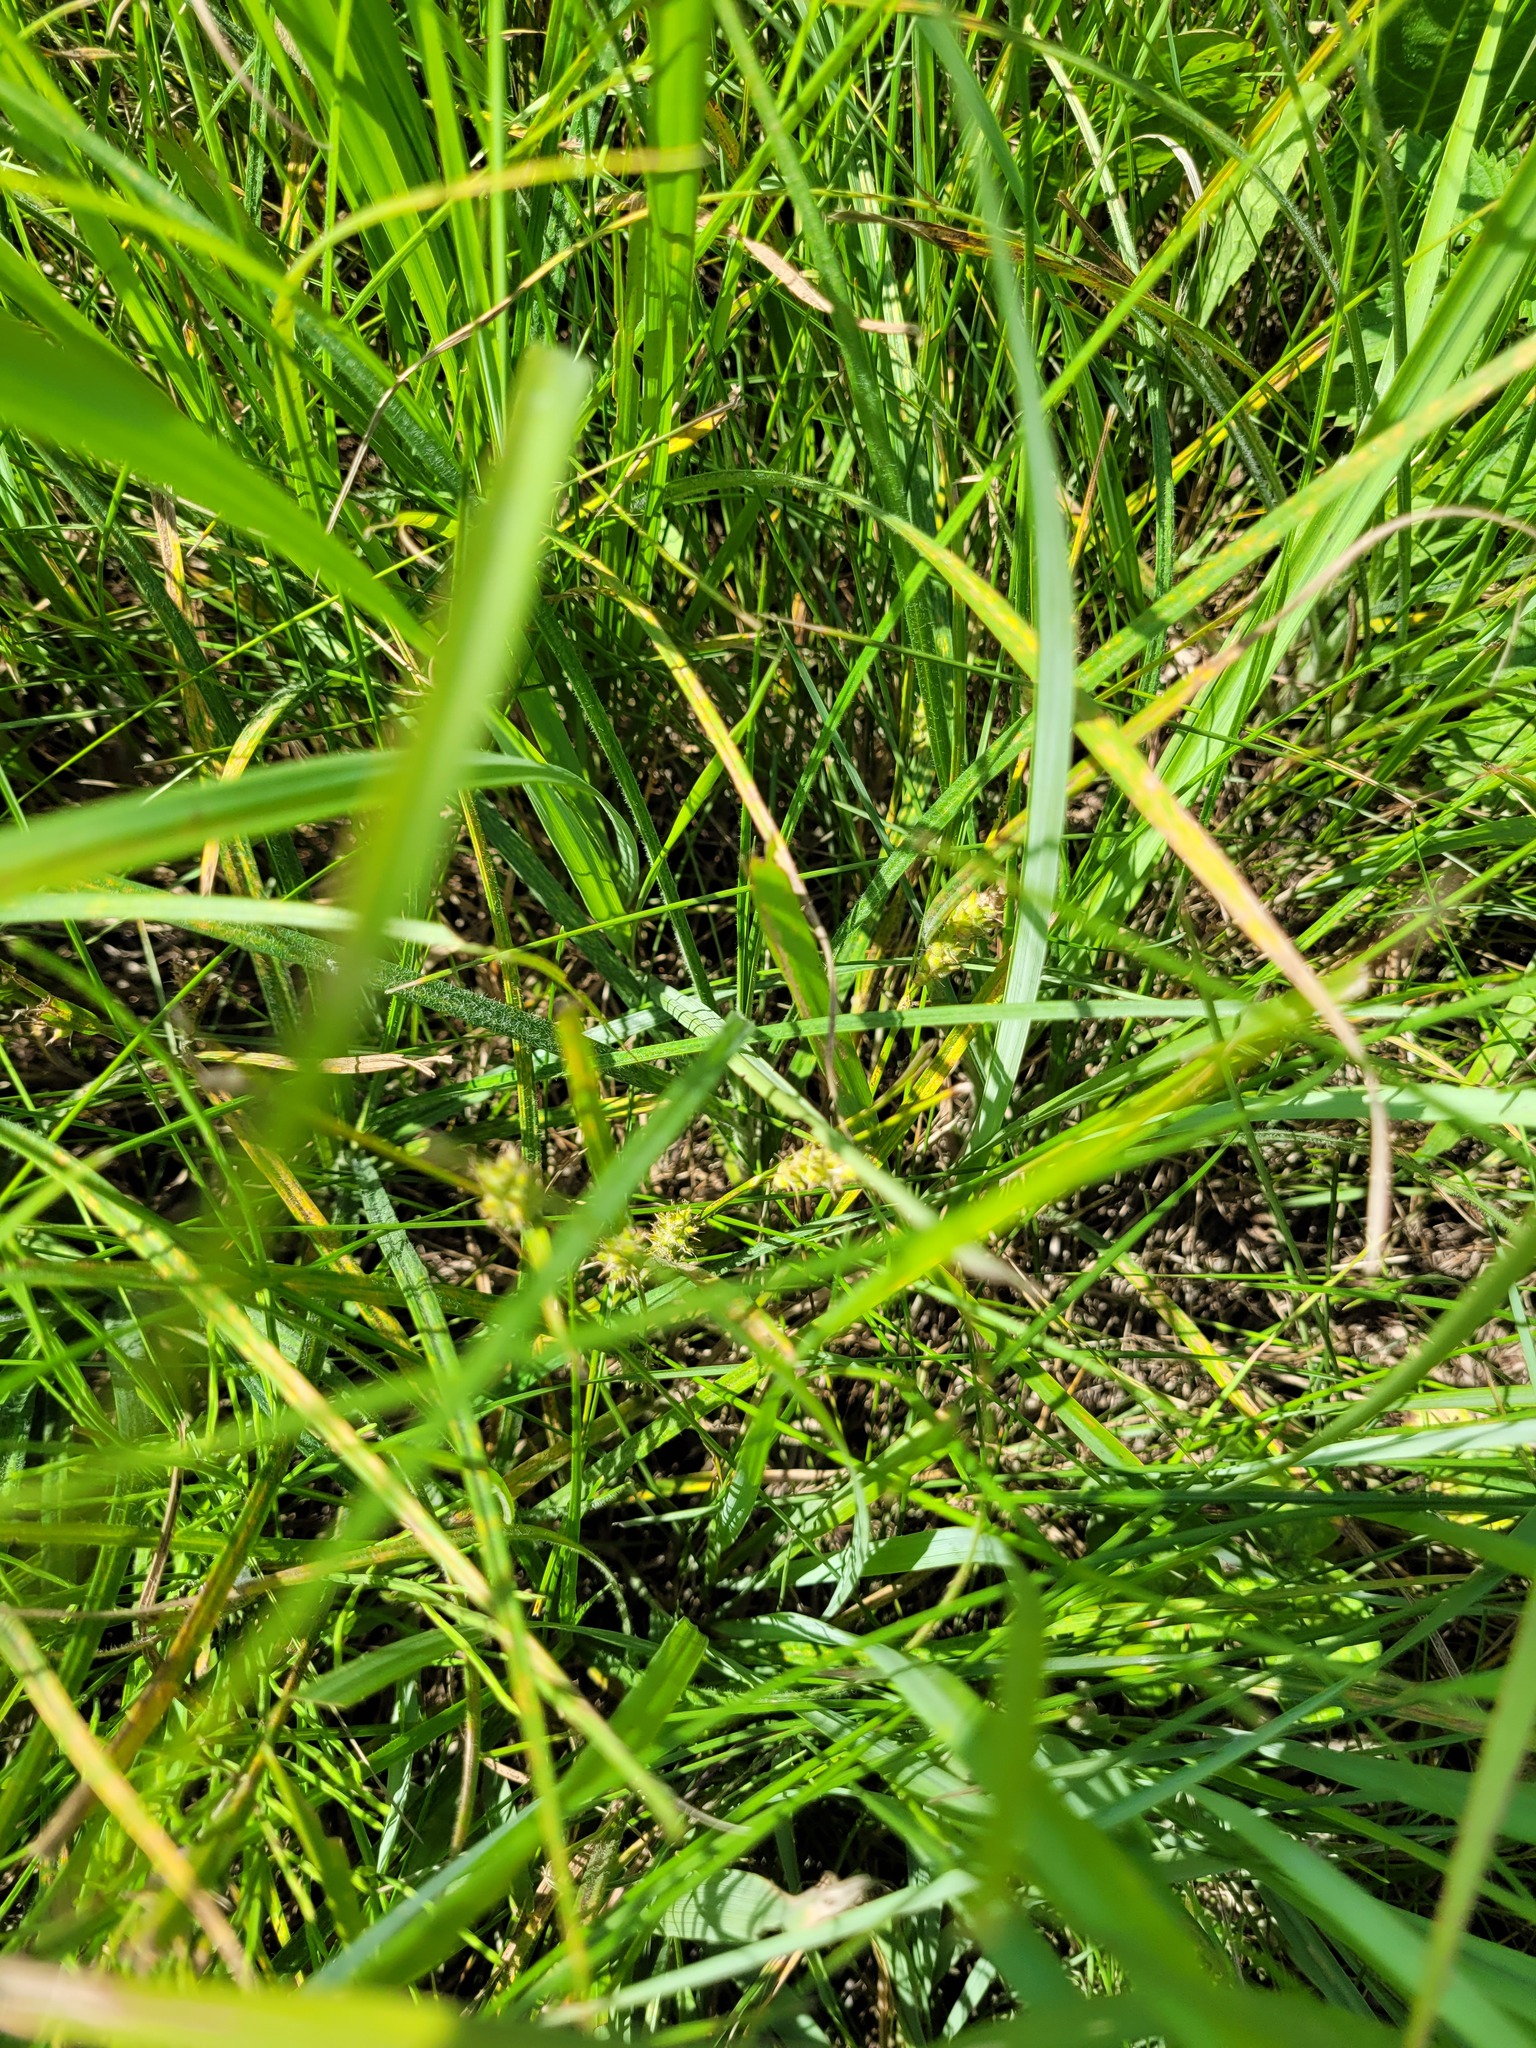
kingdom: Plantae
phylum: Tracheophyta
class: Liliopsida
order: Poales
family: Cyperaceae
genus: Carex
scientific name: Carex hirta
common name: Hairy sedge
